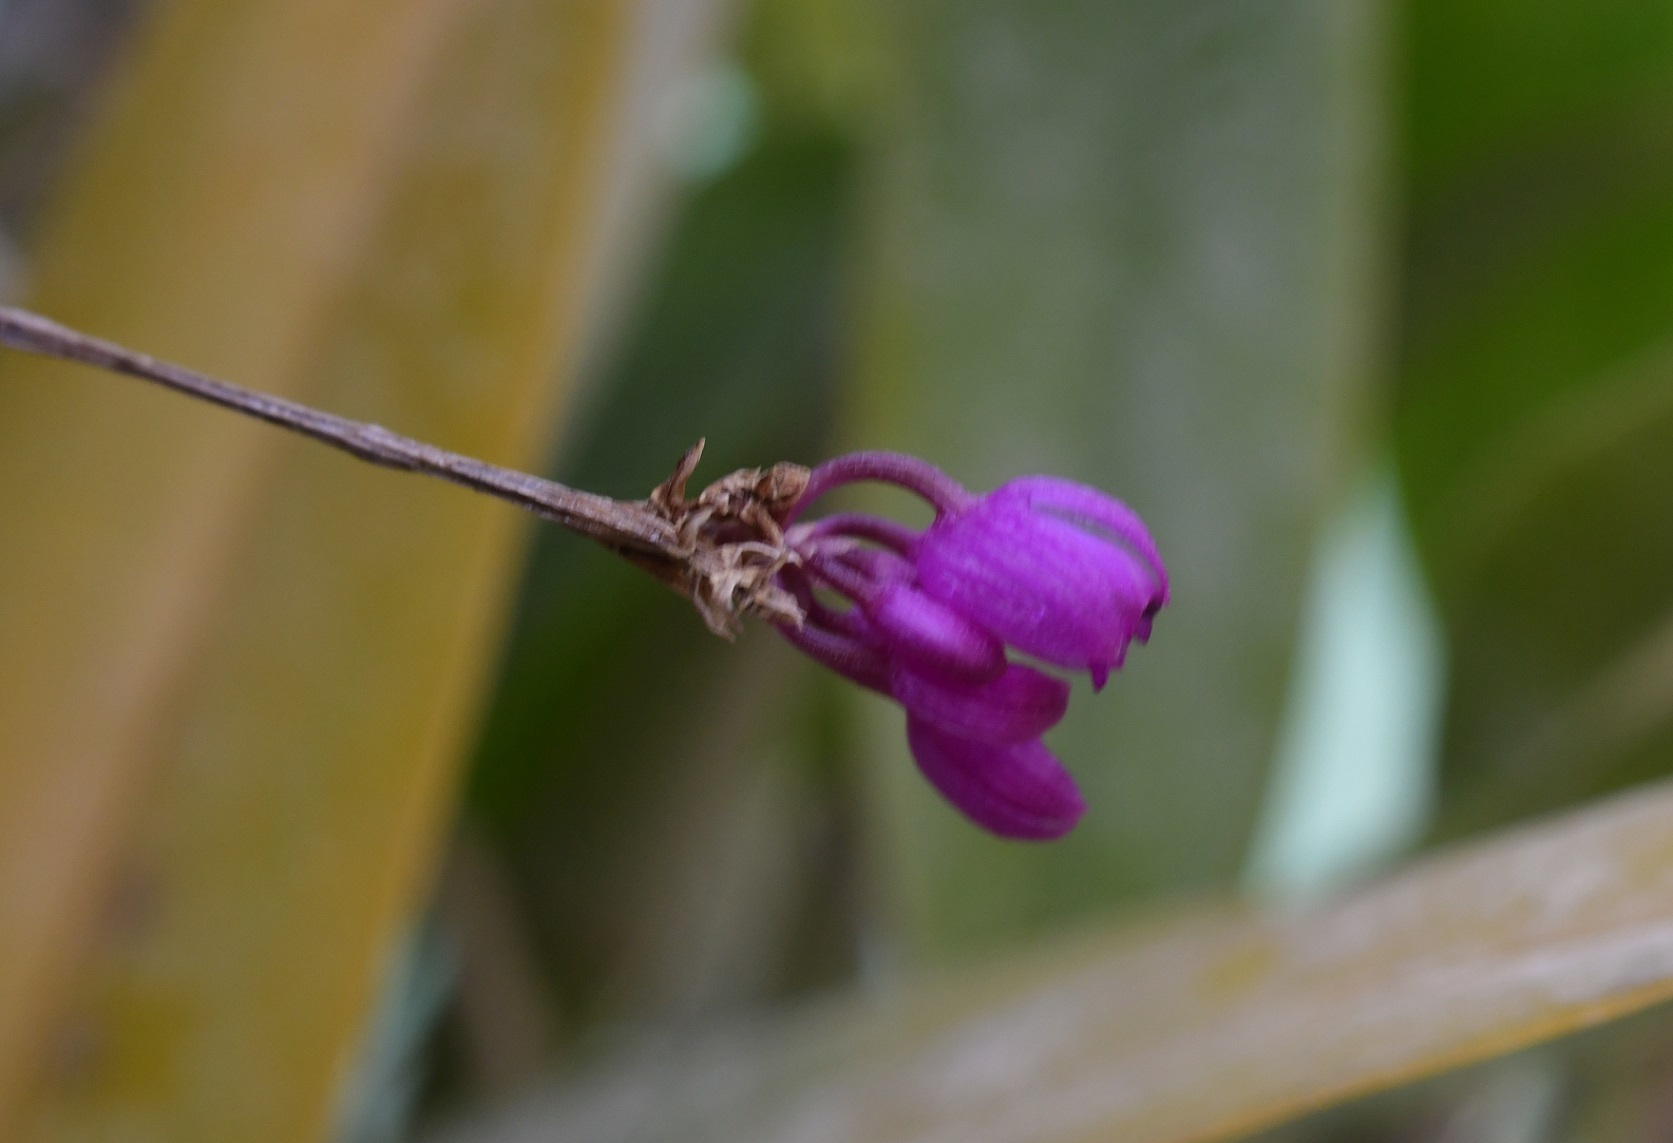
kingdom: Plantae
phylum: Tracheophyta
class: Liliopsida
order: Asparagales
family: Orchidaceae
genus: Domingoa
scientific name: Domingoa purpurea
